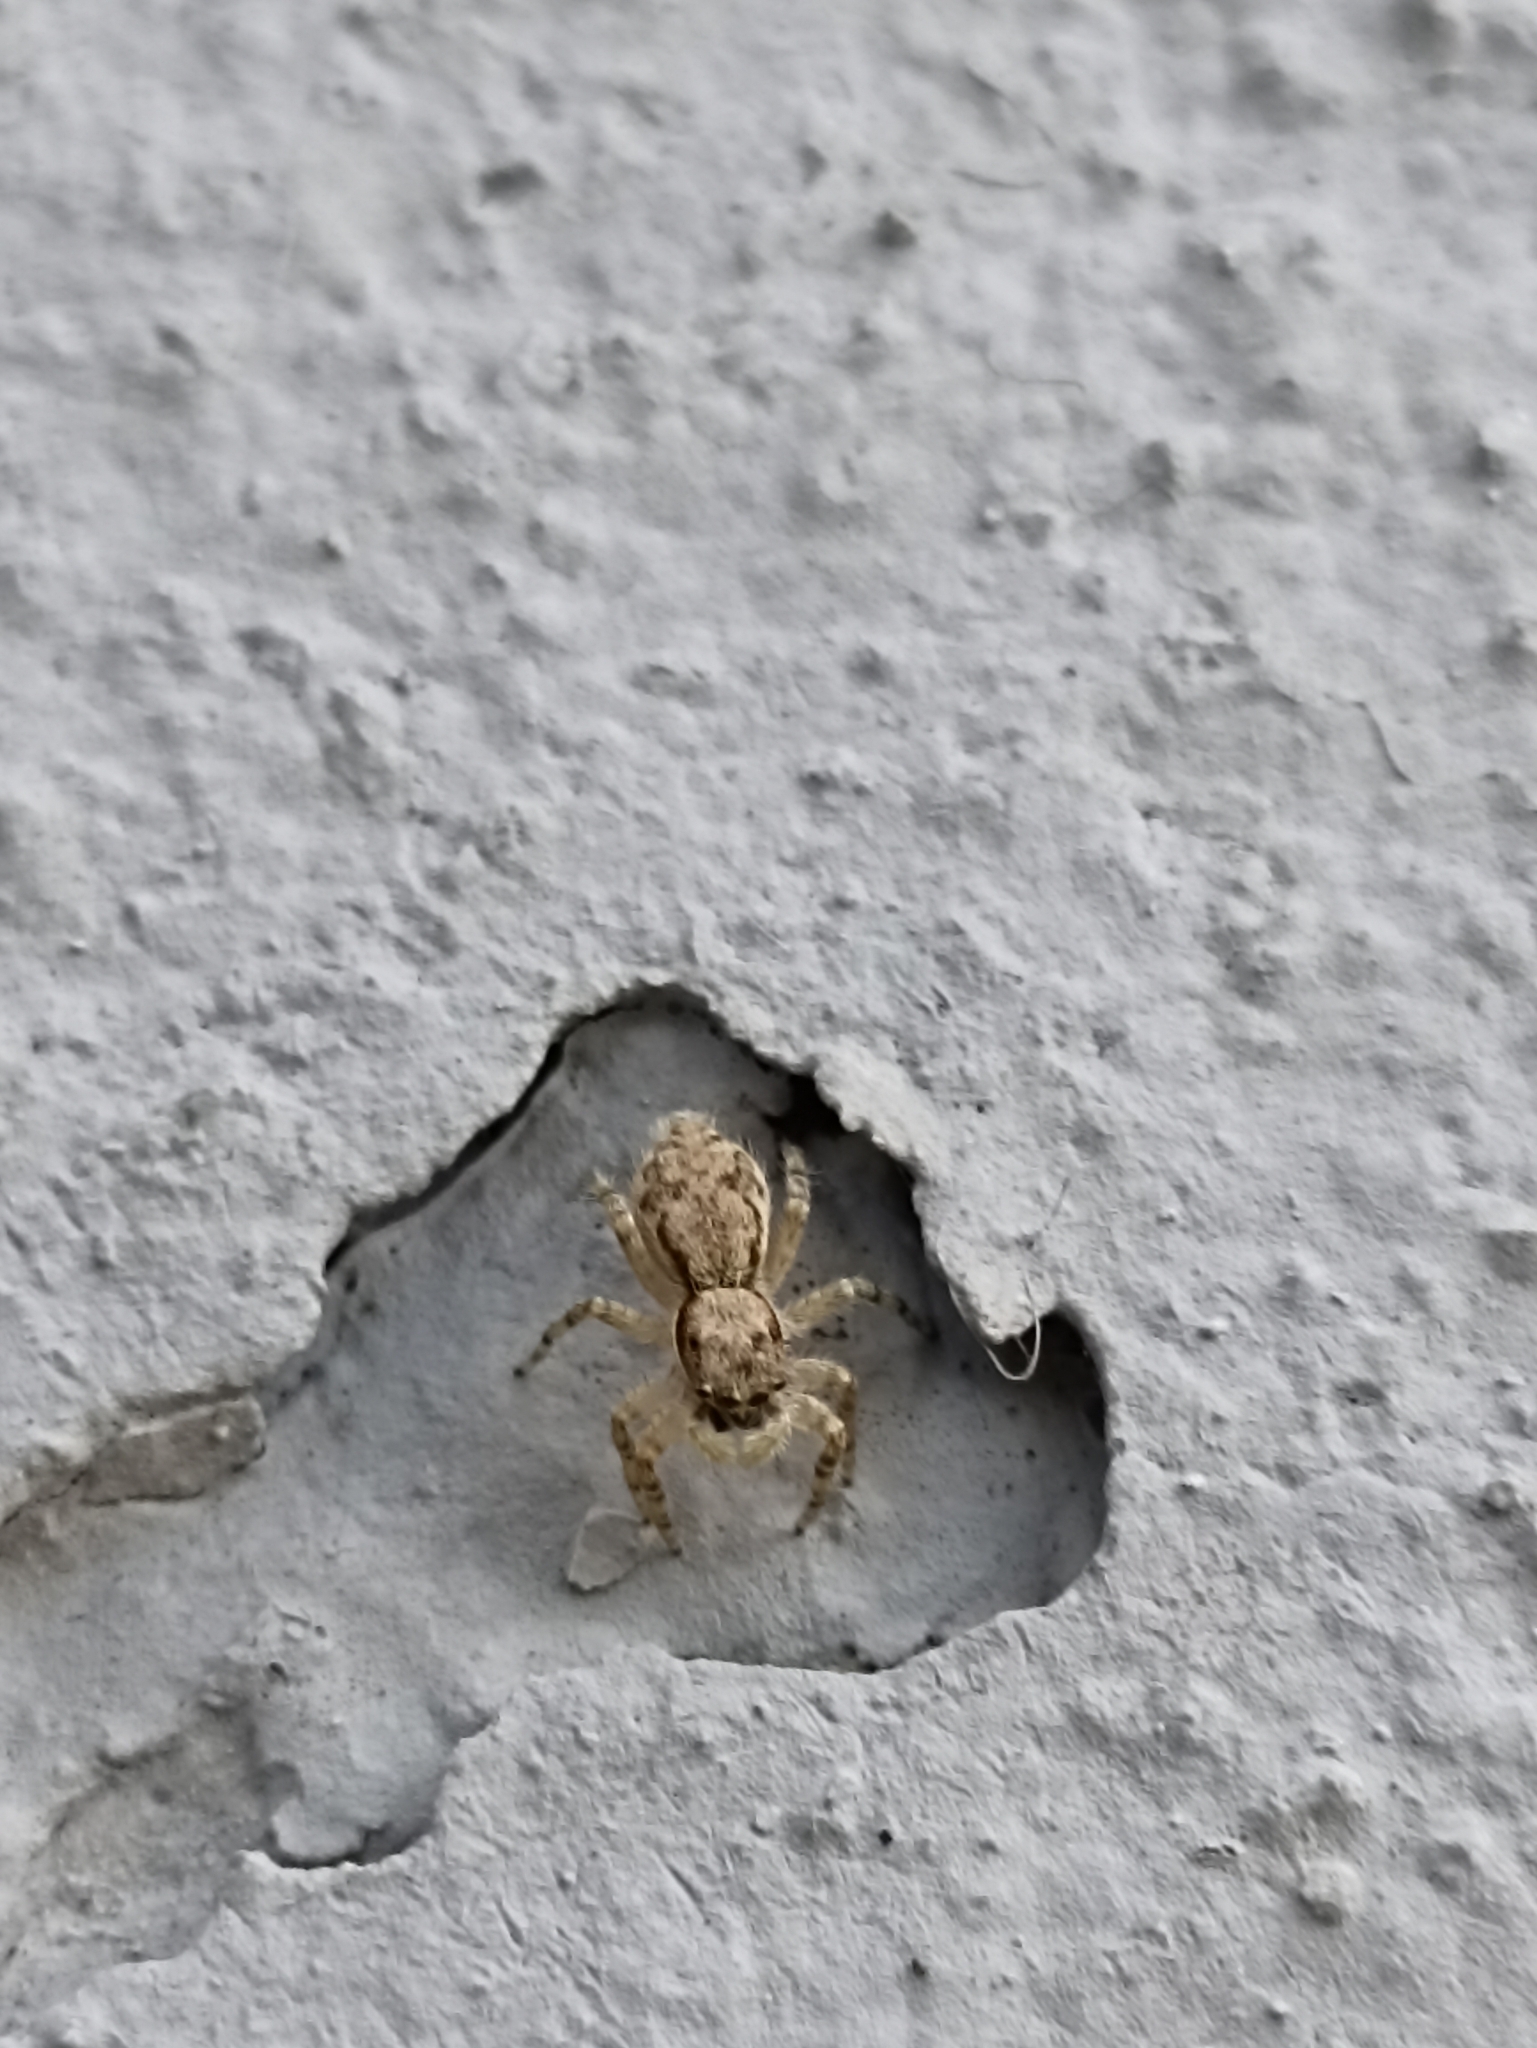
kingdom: Animalia
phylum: Arthropoda
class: Arachnida
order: Araneae
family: Salticidae
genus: Menemerus
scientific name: Menemerus bivittatus
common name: Gray wall jumper
